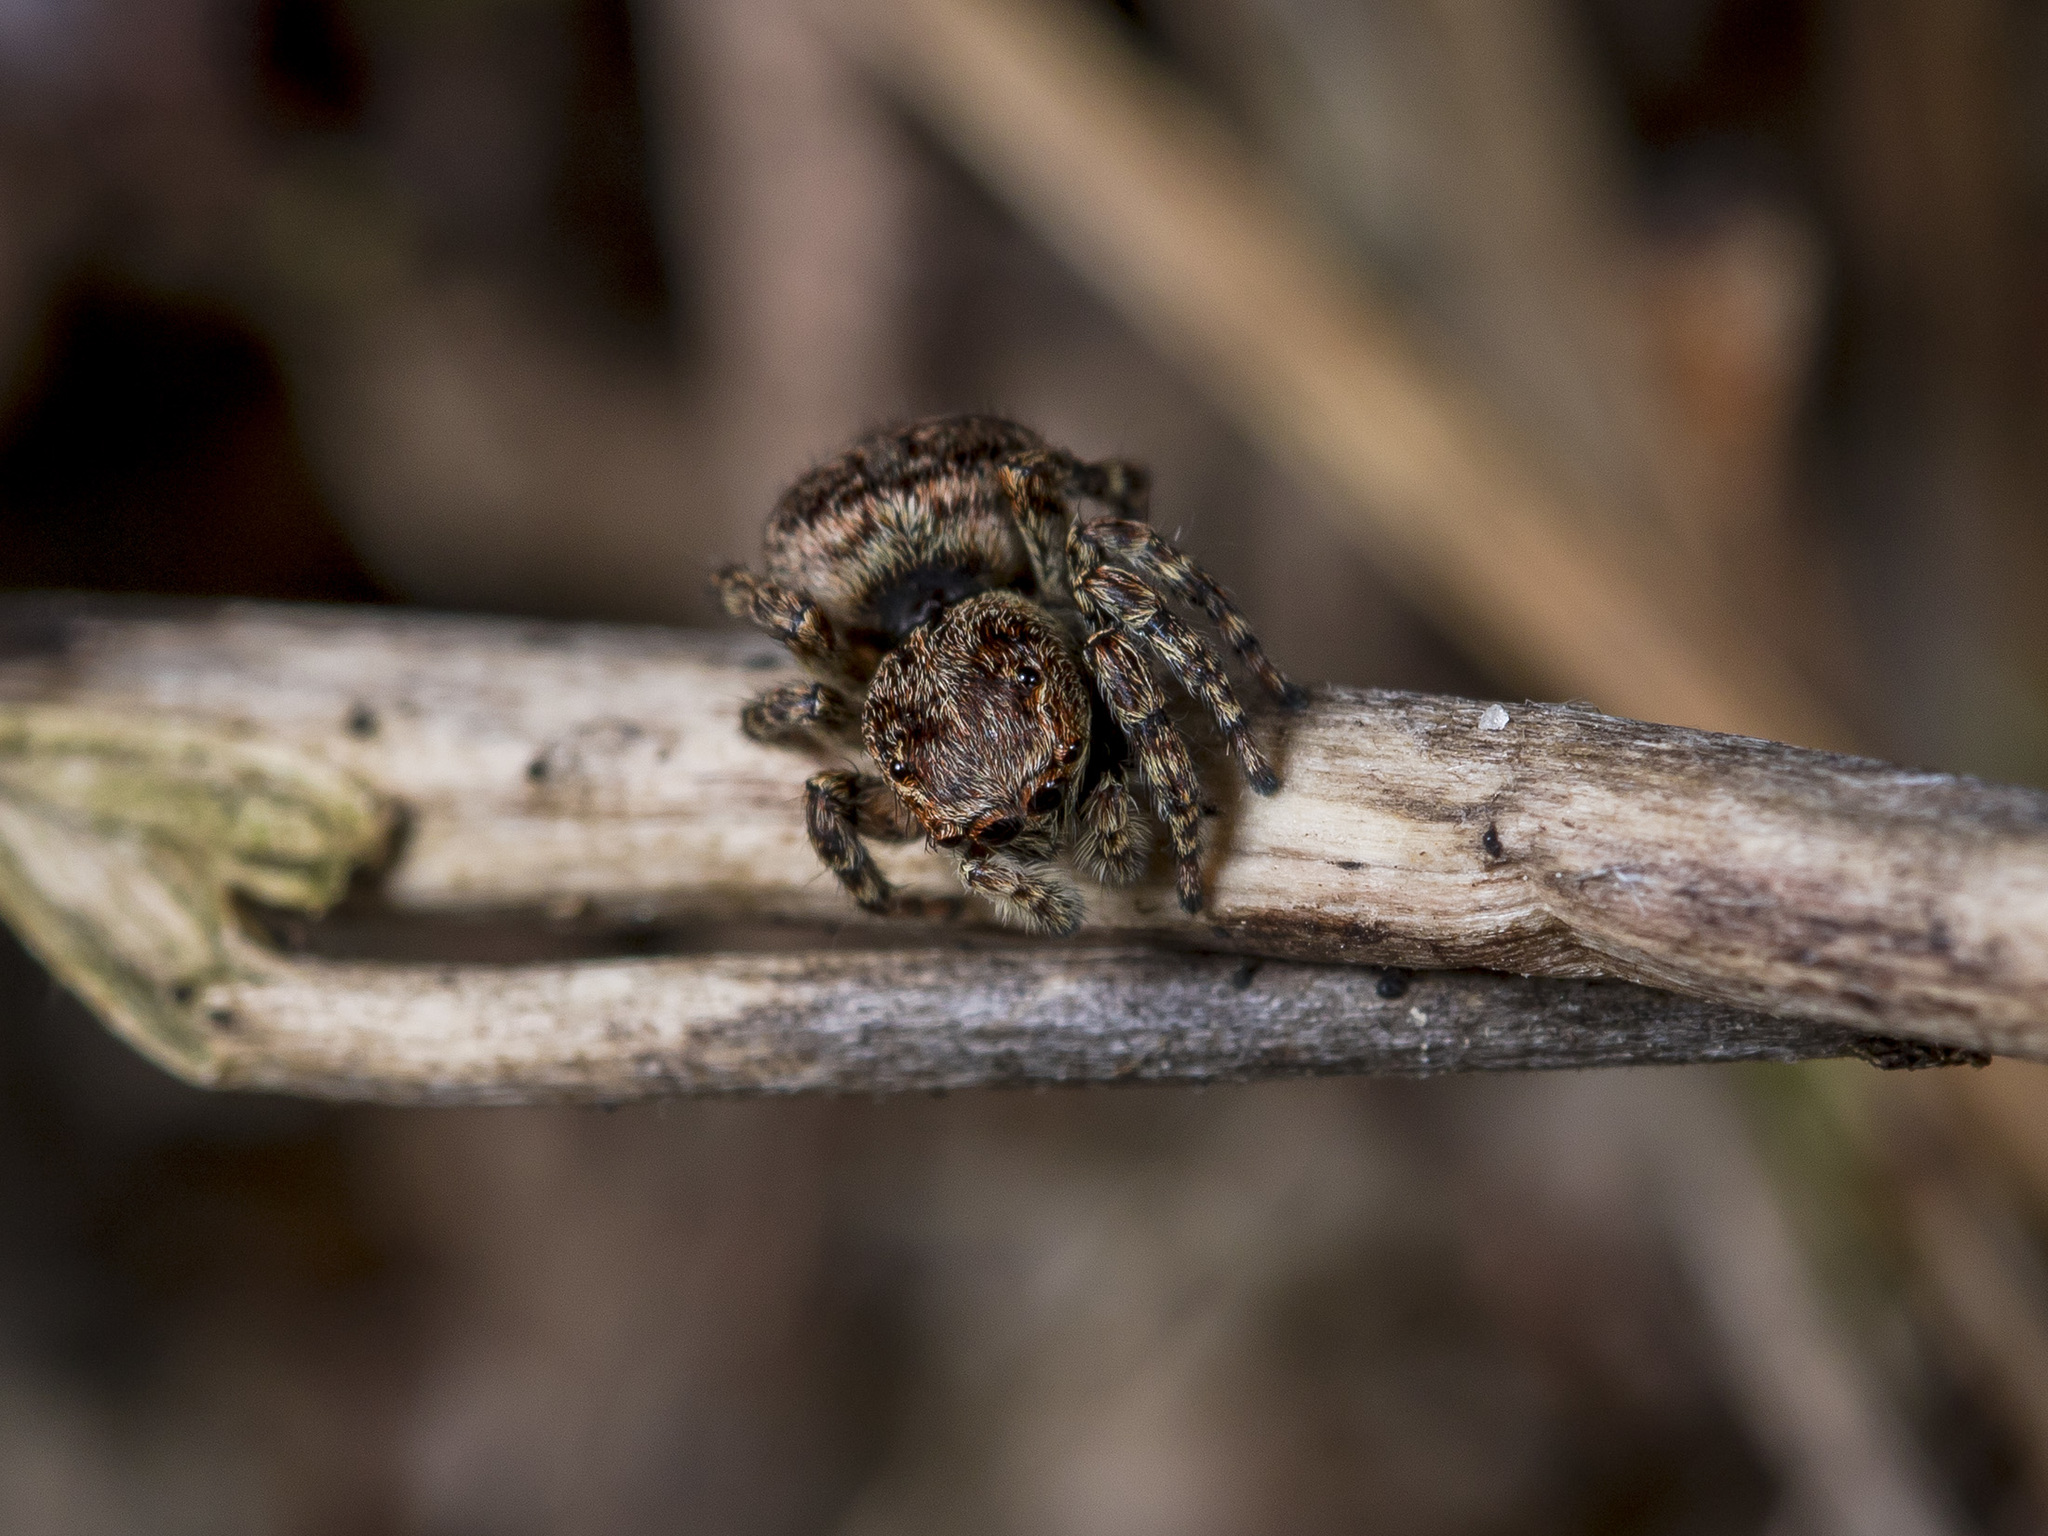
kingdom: Animalia
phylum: Arthropoda
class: Arachnida
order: Araneae
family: Salticidae
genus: Attulus
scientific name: Attulus monstrabilis
